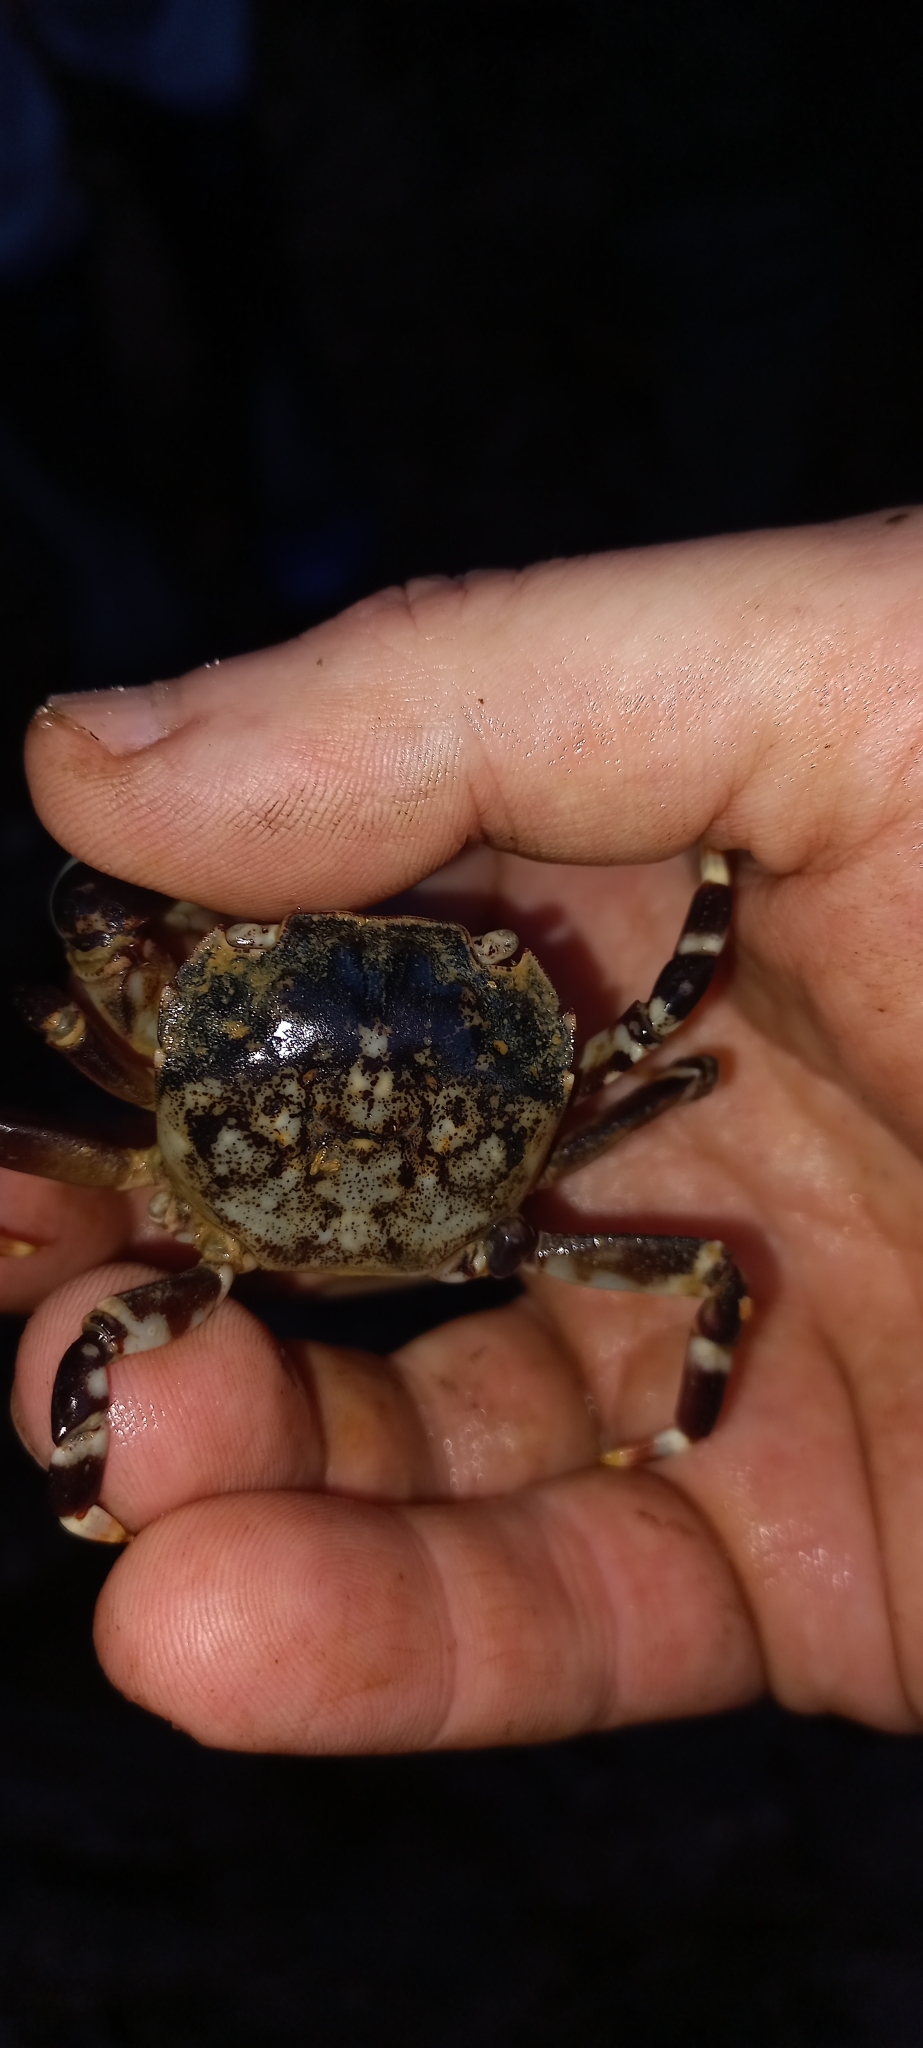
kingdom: Animalia
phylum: Arthropoda
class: Malacostraca
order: Decapoda
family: Varunidae
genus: Hemigrapsus
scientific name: Hemigrapsus sexdentatus
